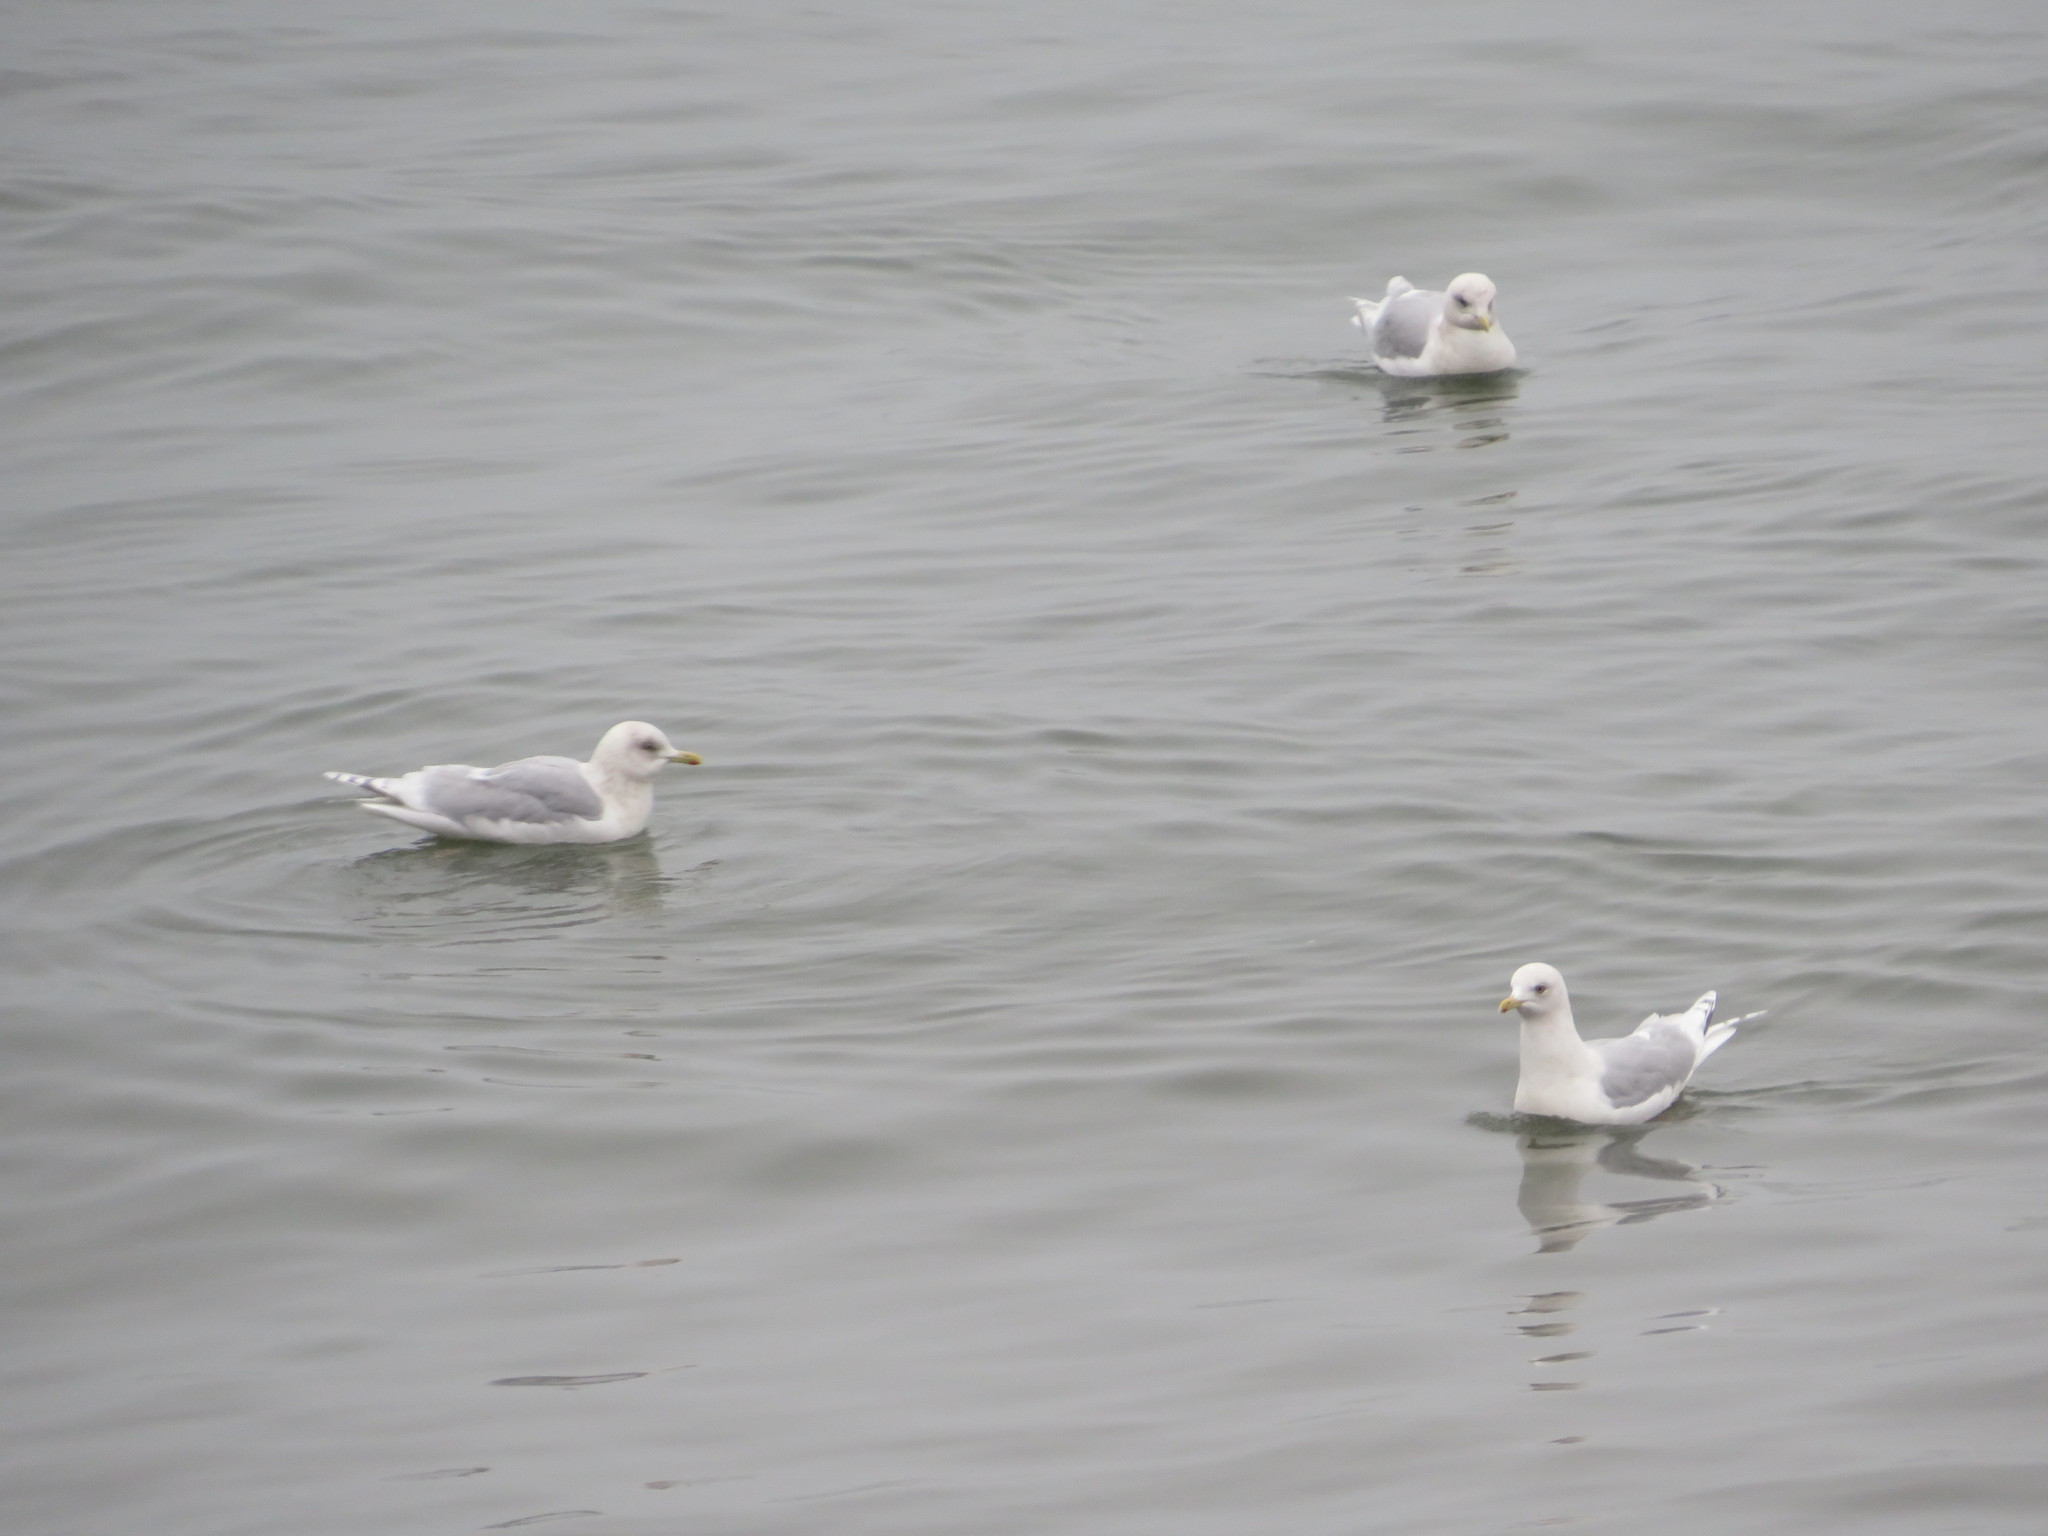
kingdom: Animalia
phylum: Chordata
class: Aves
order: Charadriiformes
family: Laridae
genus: Larus
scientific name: Larus glaucoides
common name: Iceland gull
